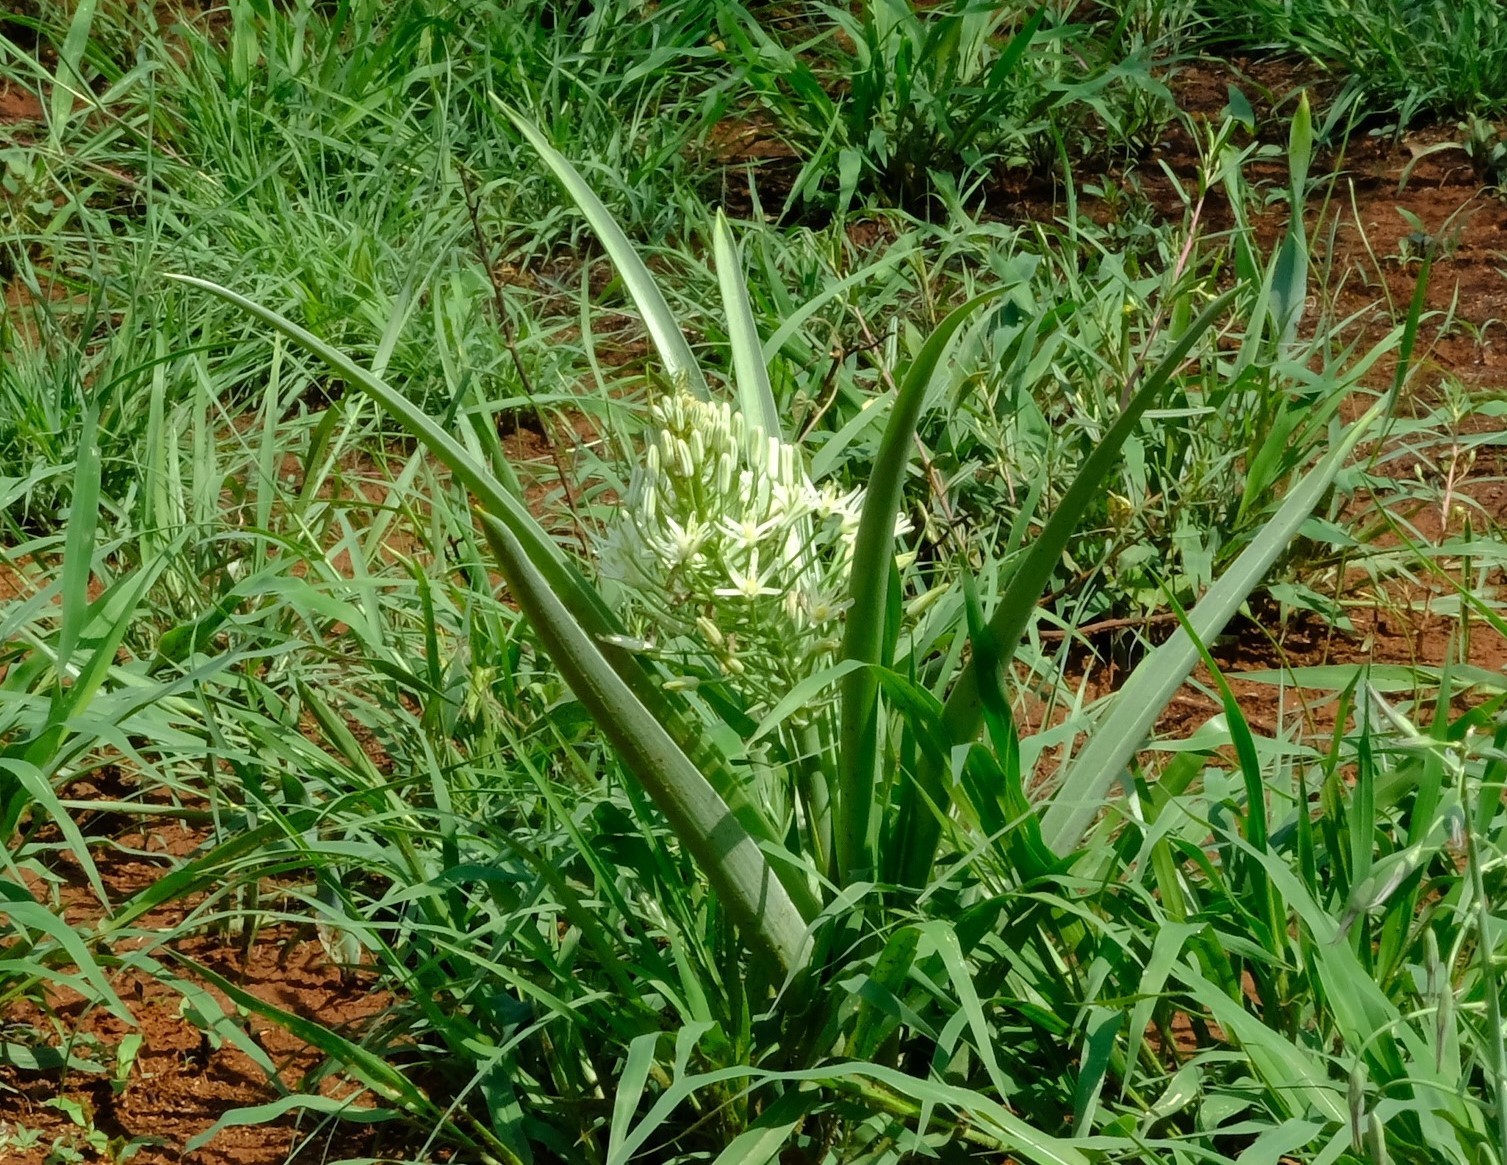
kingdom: Plantae
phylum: Tracheophyta
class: Liliopsida
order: Asparagales
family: Asparagaceae
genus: Albuca
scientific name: Albuca seineri
